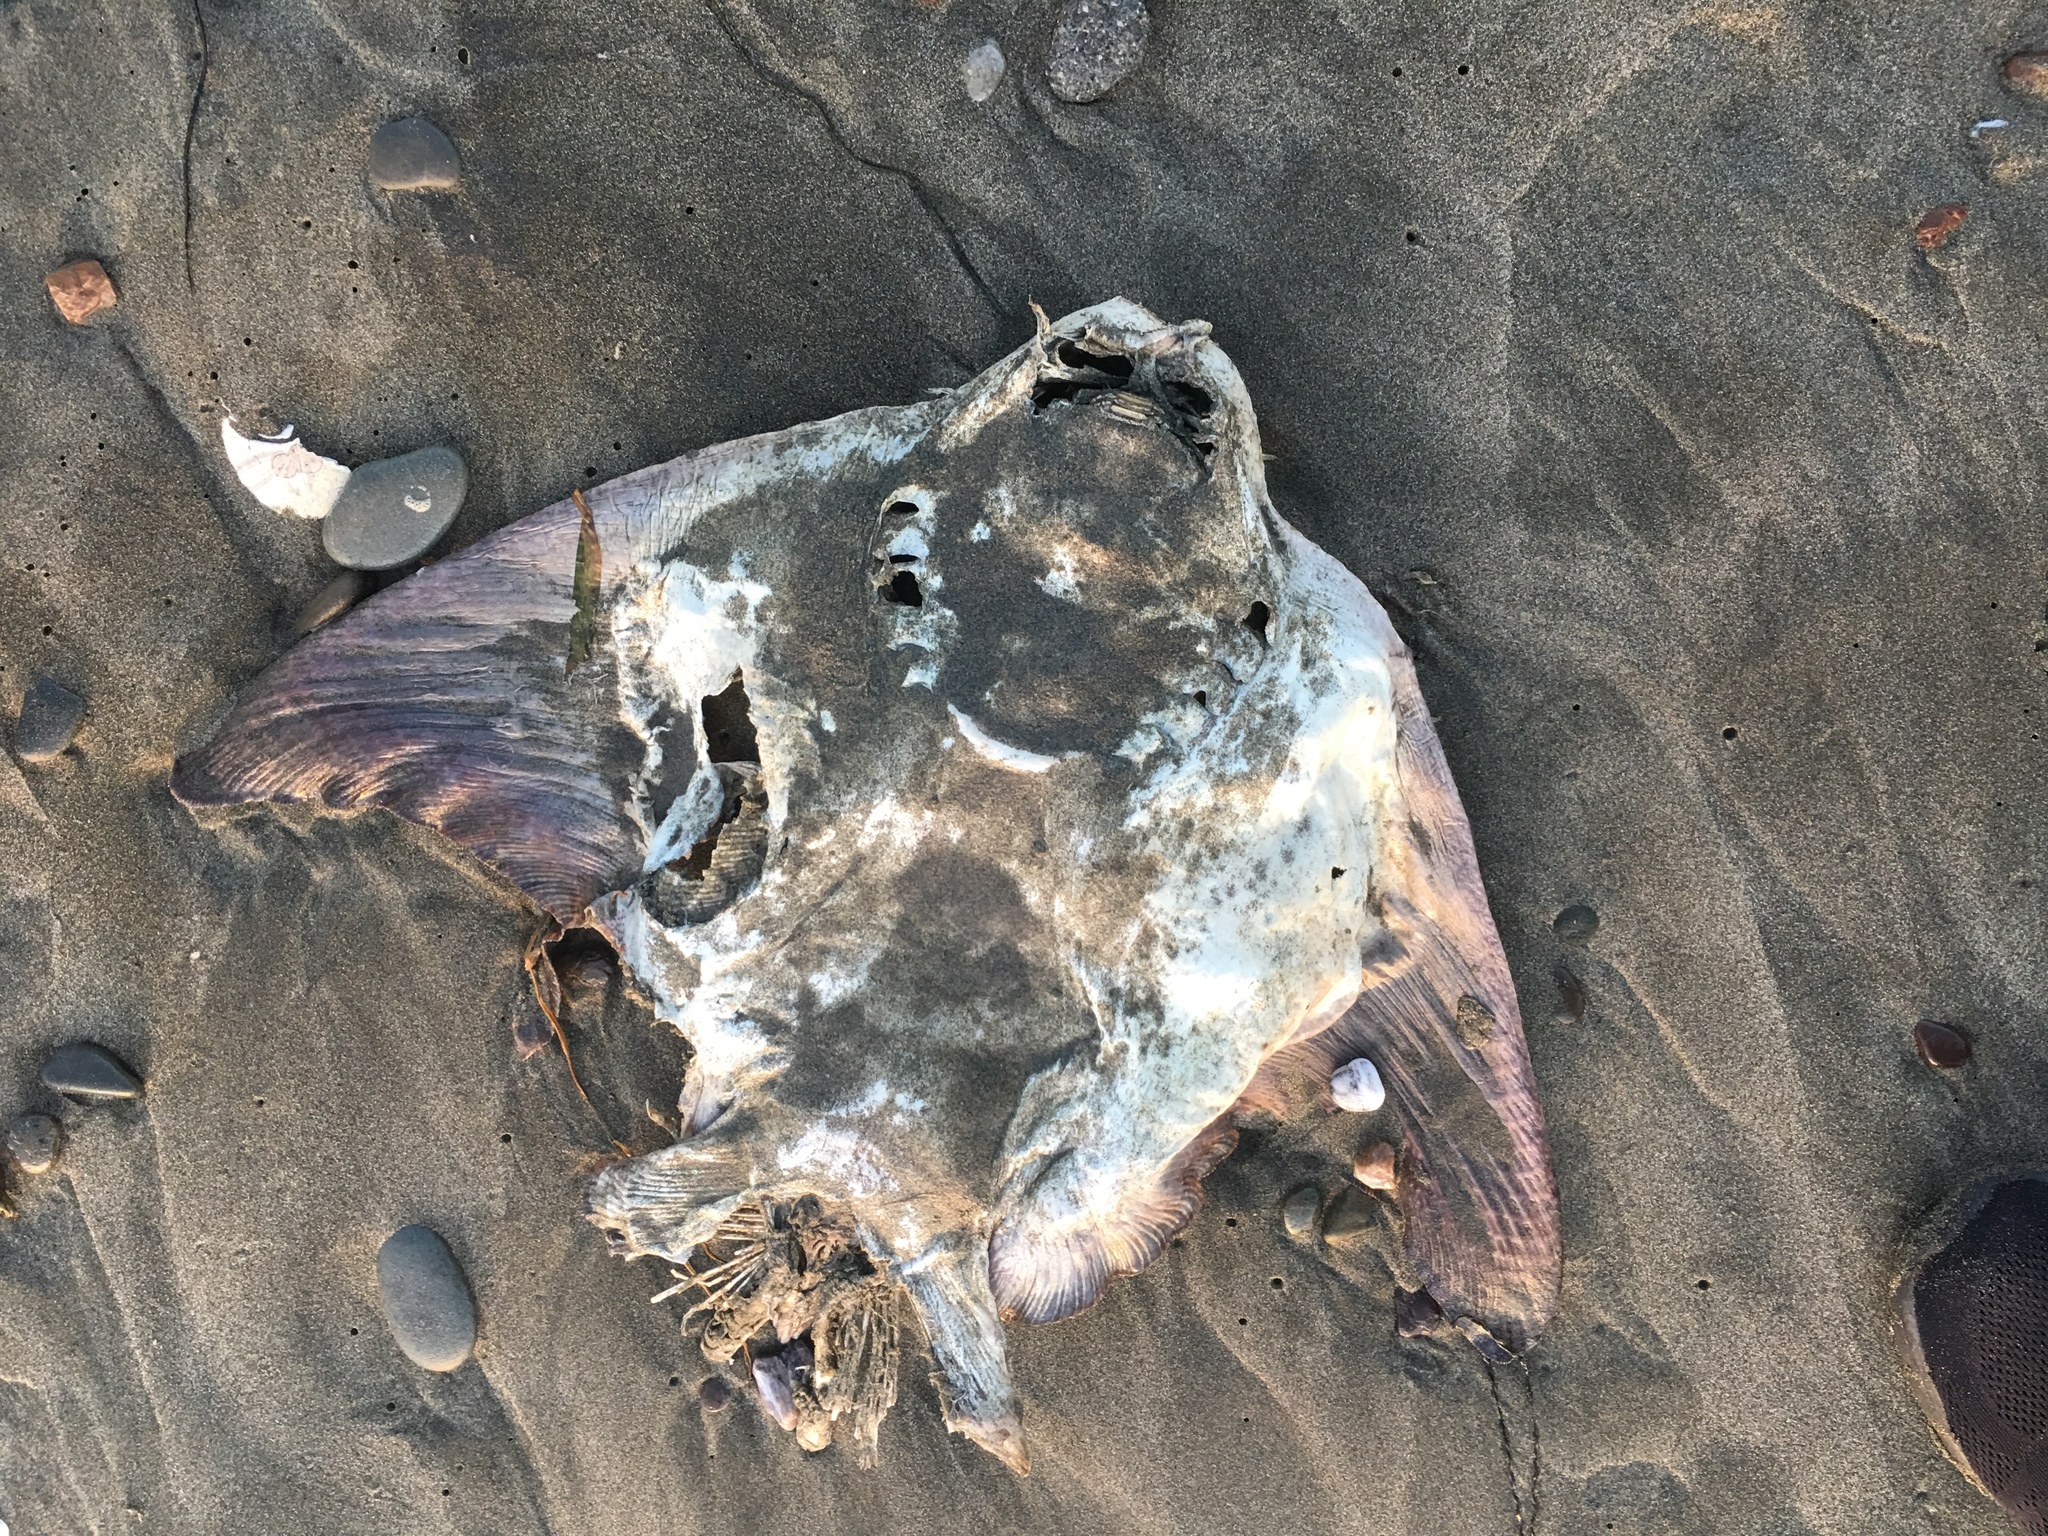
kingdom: Animalia
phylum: Chordata
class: Elasmobranchii
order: Myliobatiformes
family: Myliobatidae
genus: Myliobatis
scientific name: Myliobatis californica
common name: Bat ray
